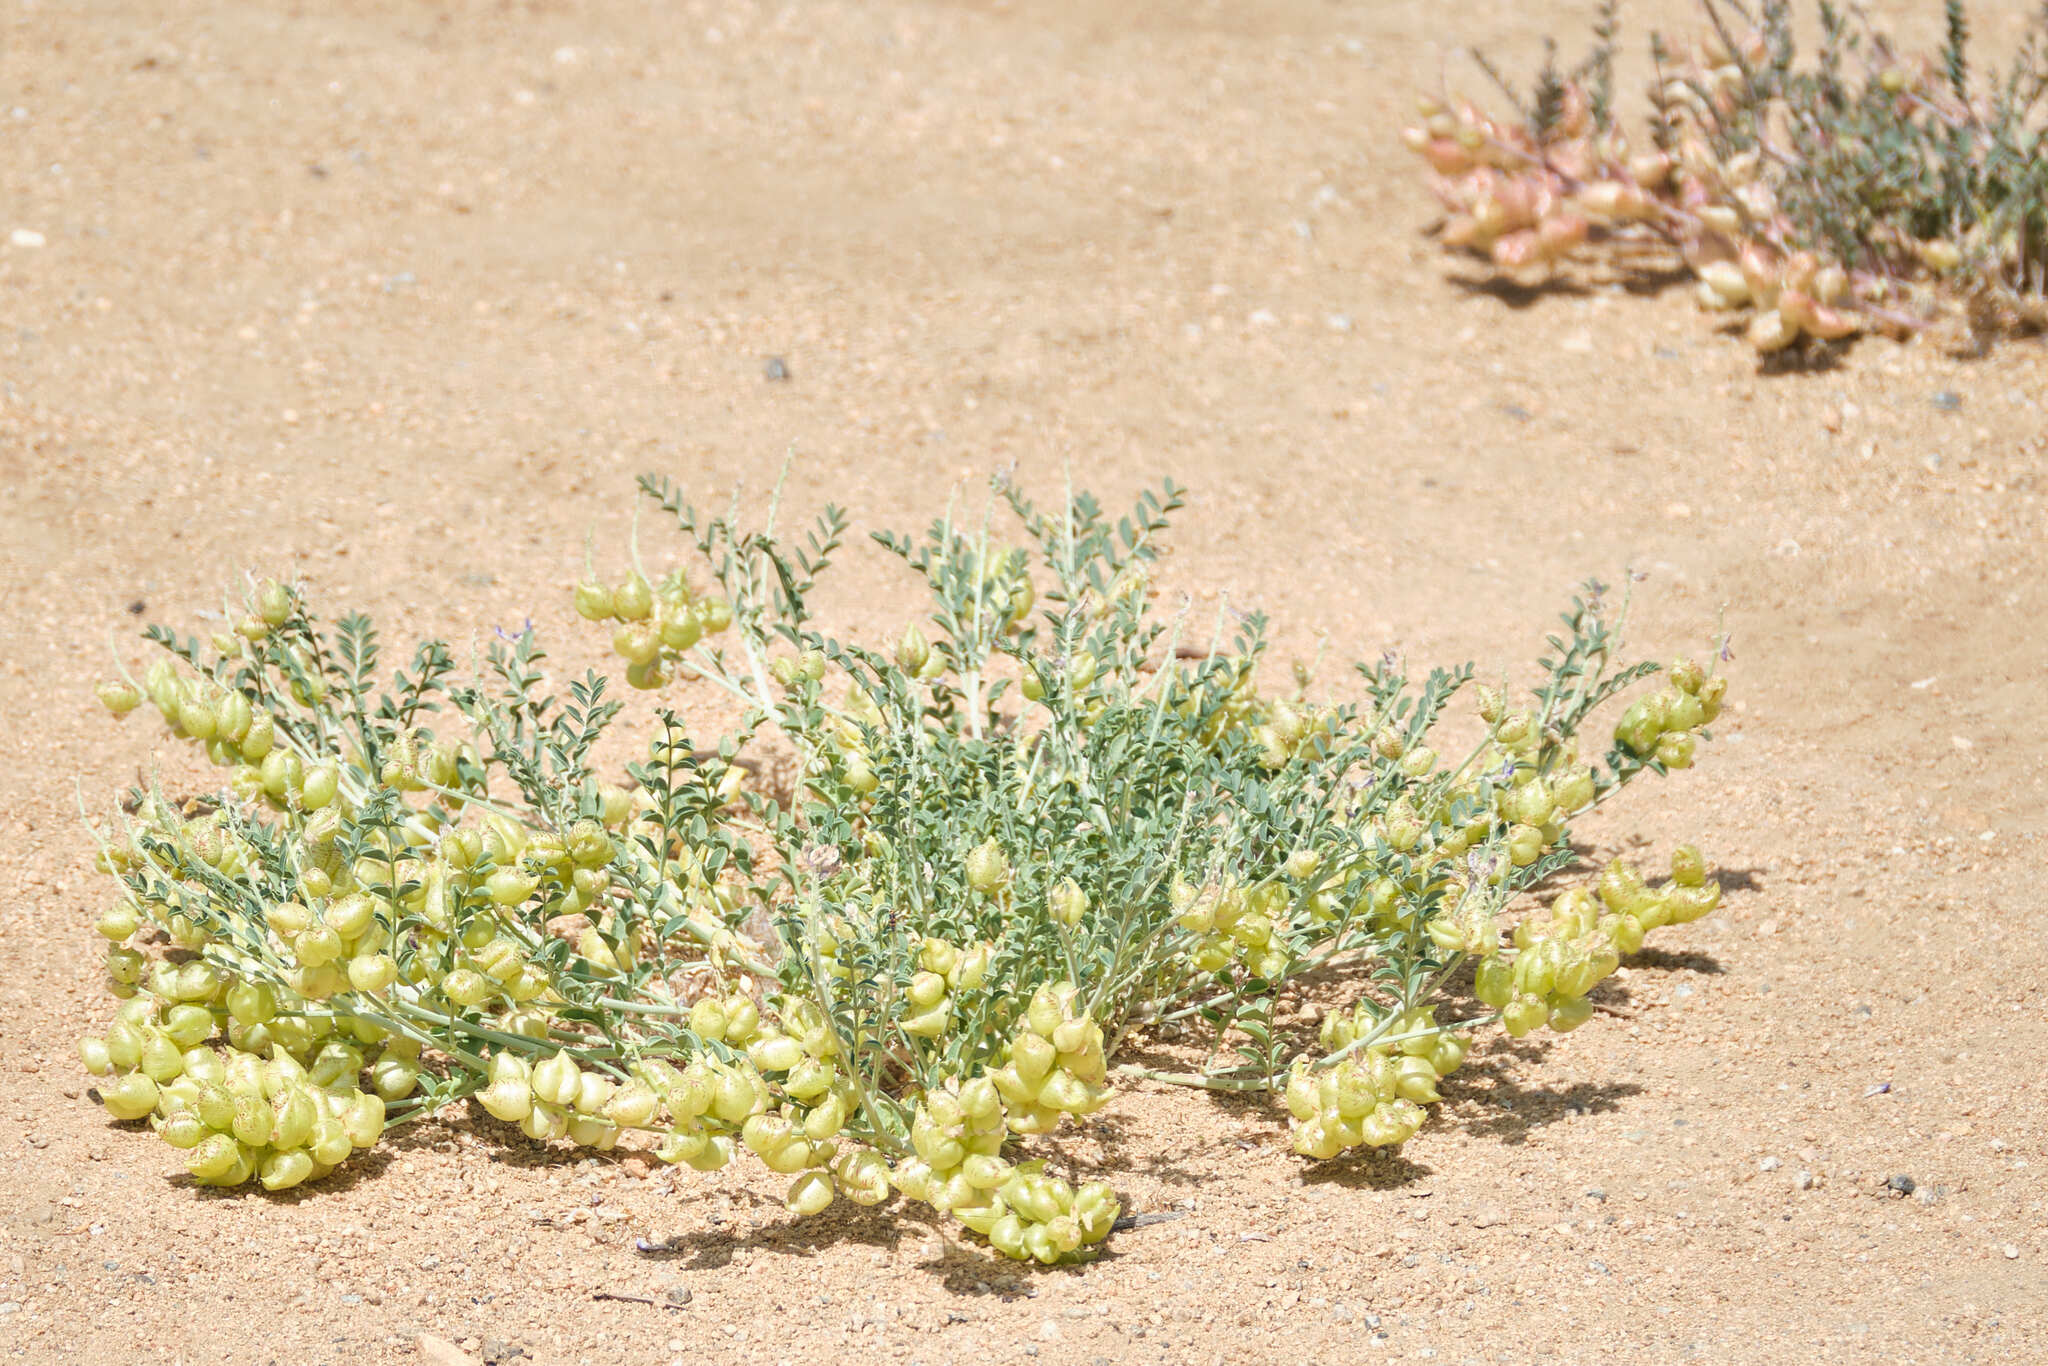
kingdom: Plantae
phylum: Tracheophyta
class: Magnoliopsida
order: Fabales
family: Fabaceae
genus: Astragalus
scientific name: Astragalus lentiginosus
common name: Freckled milkvetch
